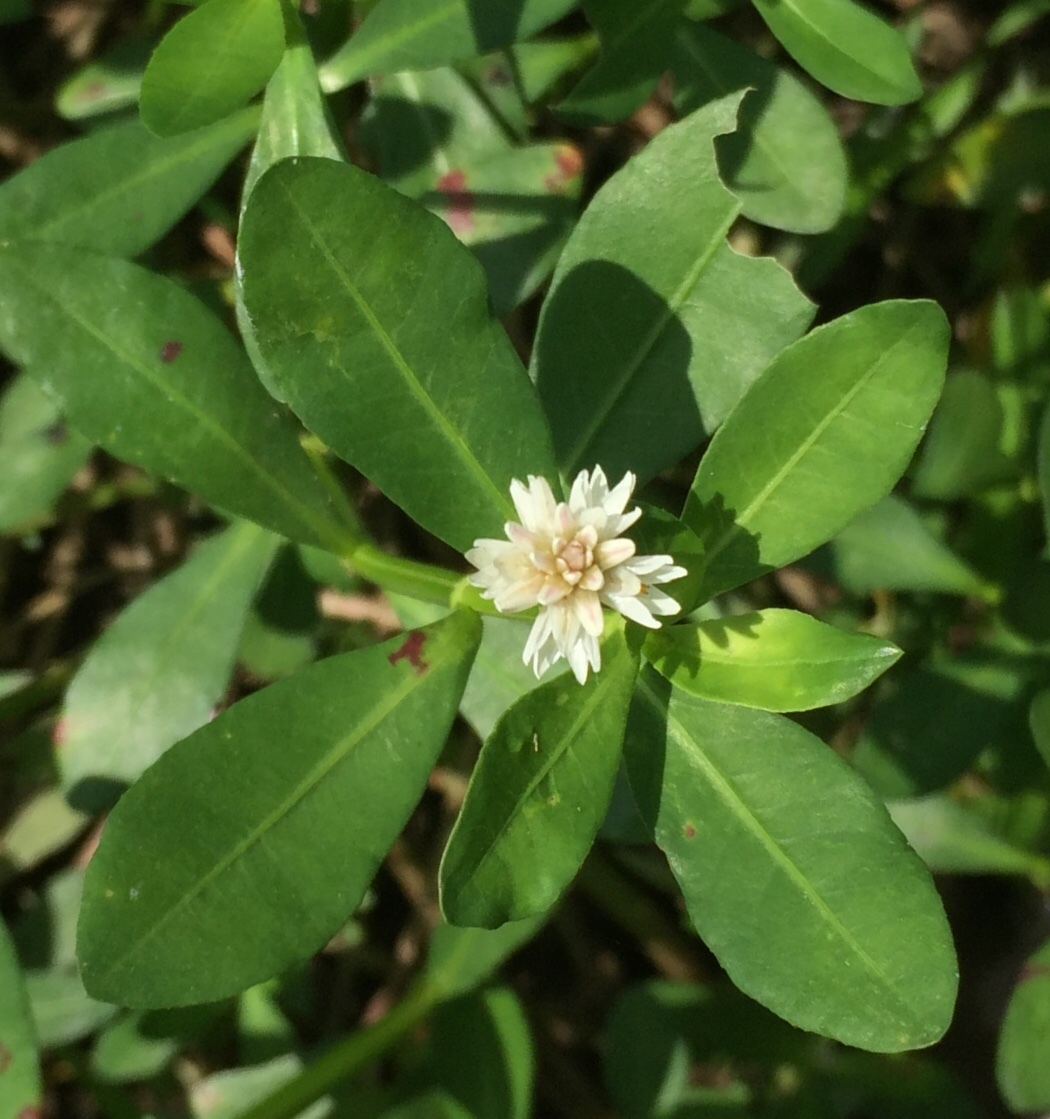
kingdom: Plantae
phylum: Tracheophyta
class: Magnoliopsida
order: Caryophyllales
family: Amaranthaceae
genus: Alternanthera
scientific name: Alternanthera philoxeroides
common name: Alligatorweed
